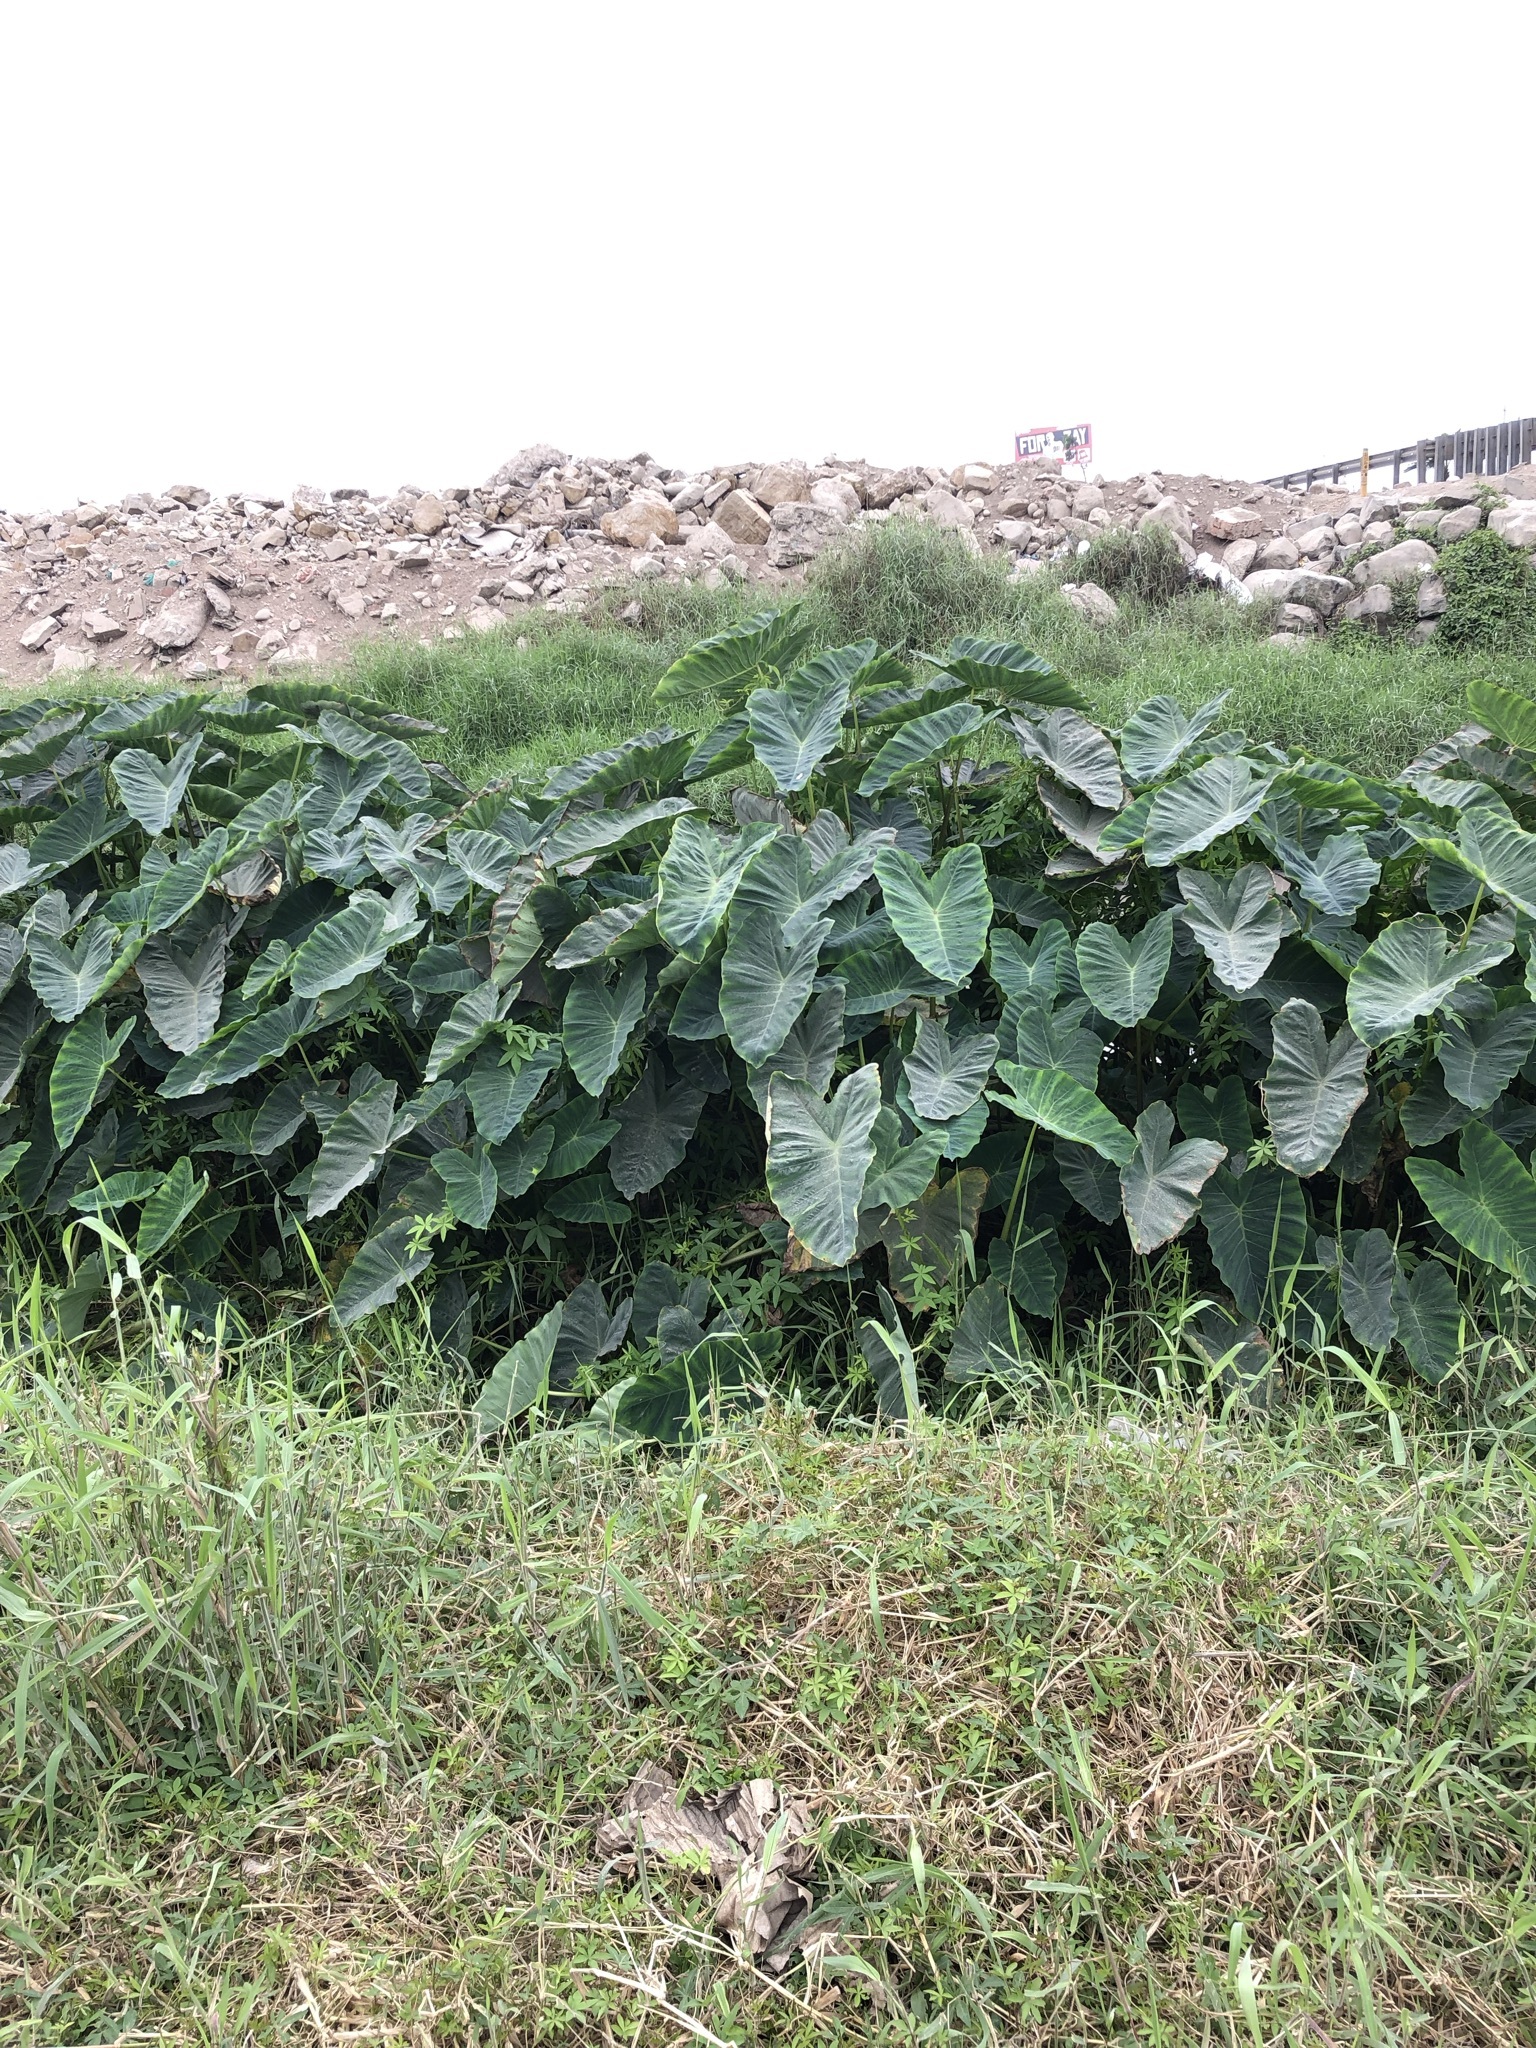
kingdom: Plantae
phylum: Tracheophyta
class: Liliopsida
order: Alismatales
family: Araceae
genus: Colocasia
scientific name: Colocasia esculenta
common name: Taro
